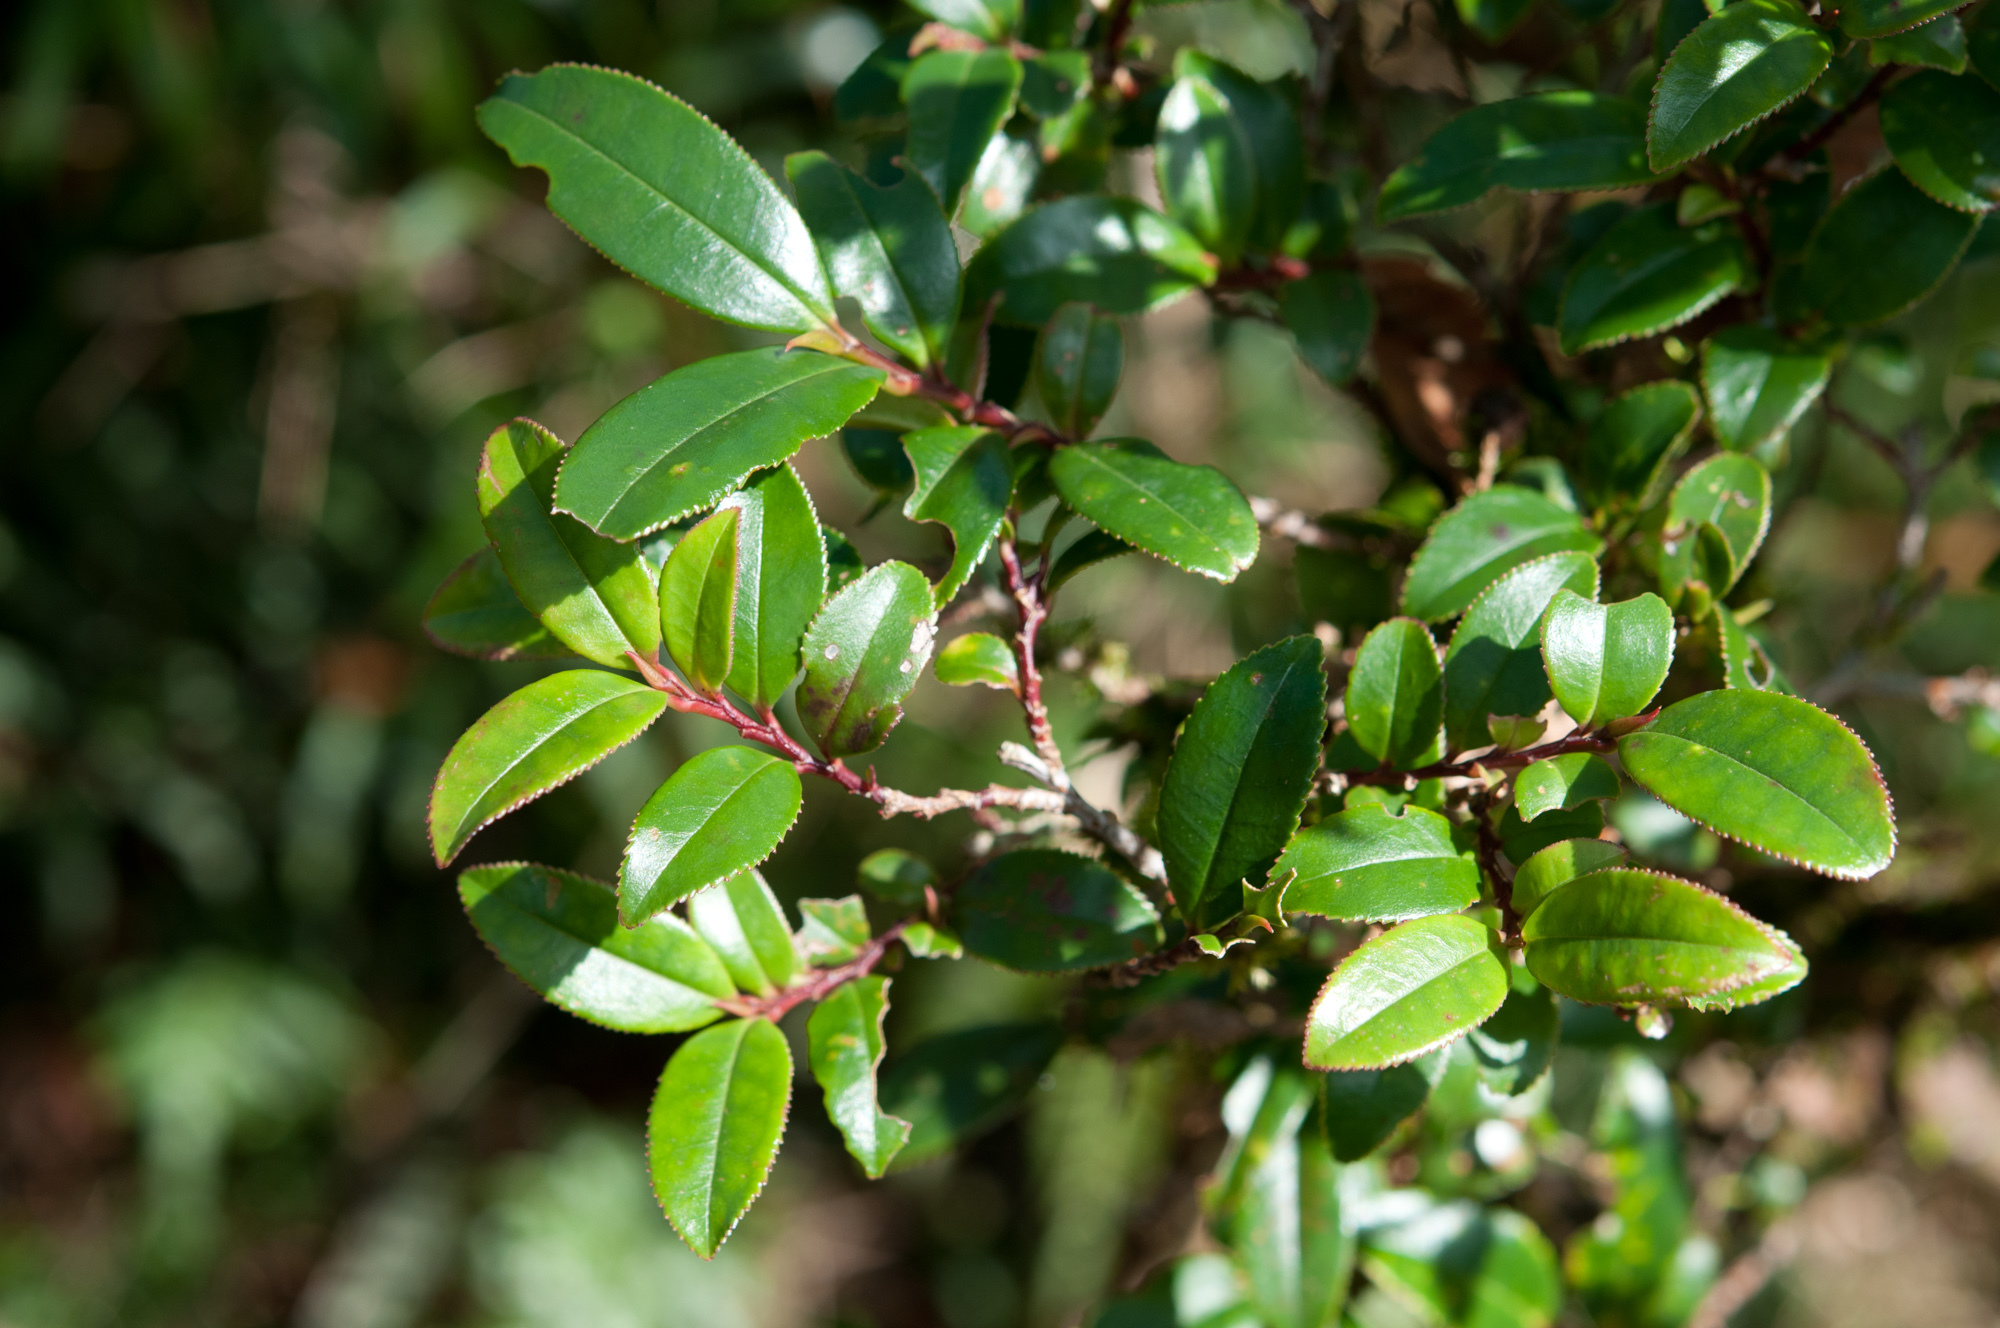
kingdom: Plantae
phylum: Tracheophyta
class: Magnoliopsida
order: Ericales
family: Pentaphylacaceae
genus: Eurya
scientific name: Eurya glaberrima
